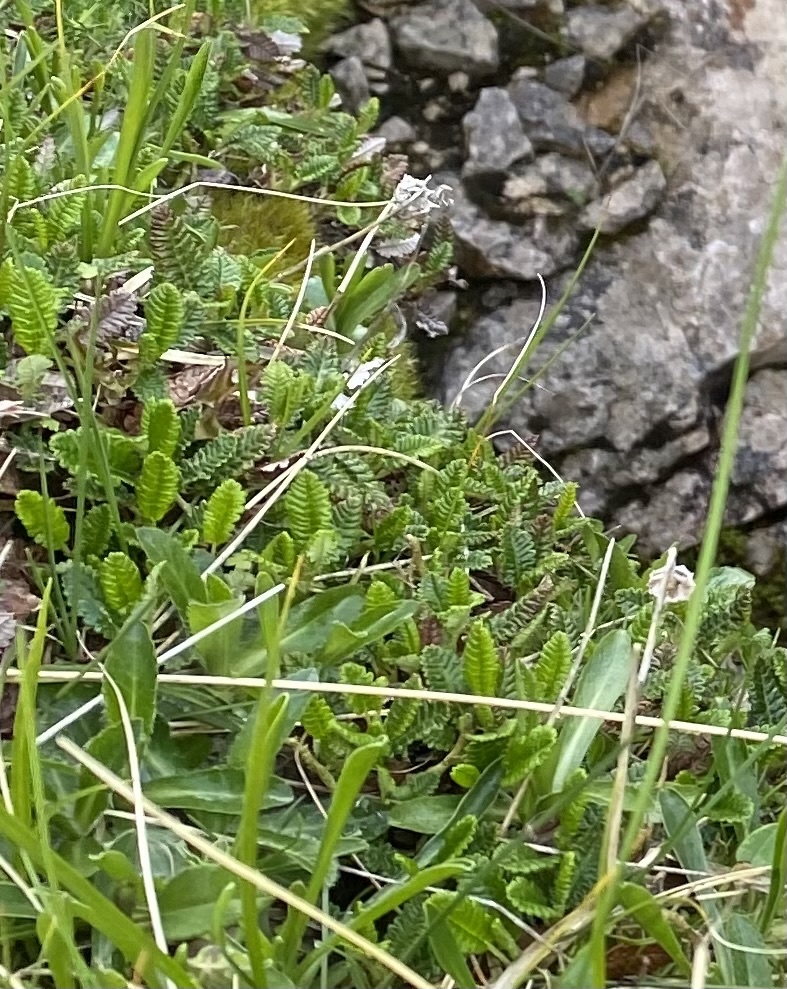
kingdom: Plantae
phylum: Tracheophyta
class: Magnoliopsida
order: Rosales
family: Rosaceae
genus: Dryas
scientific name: Dryas octopetala
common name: Eight-petal mountain-avens
